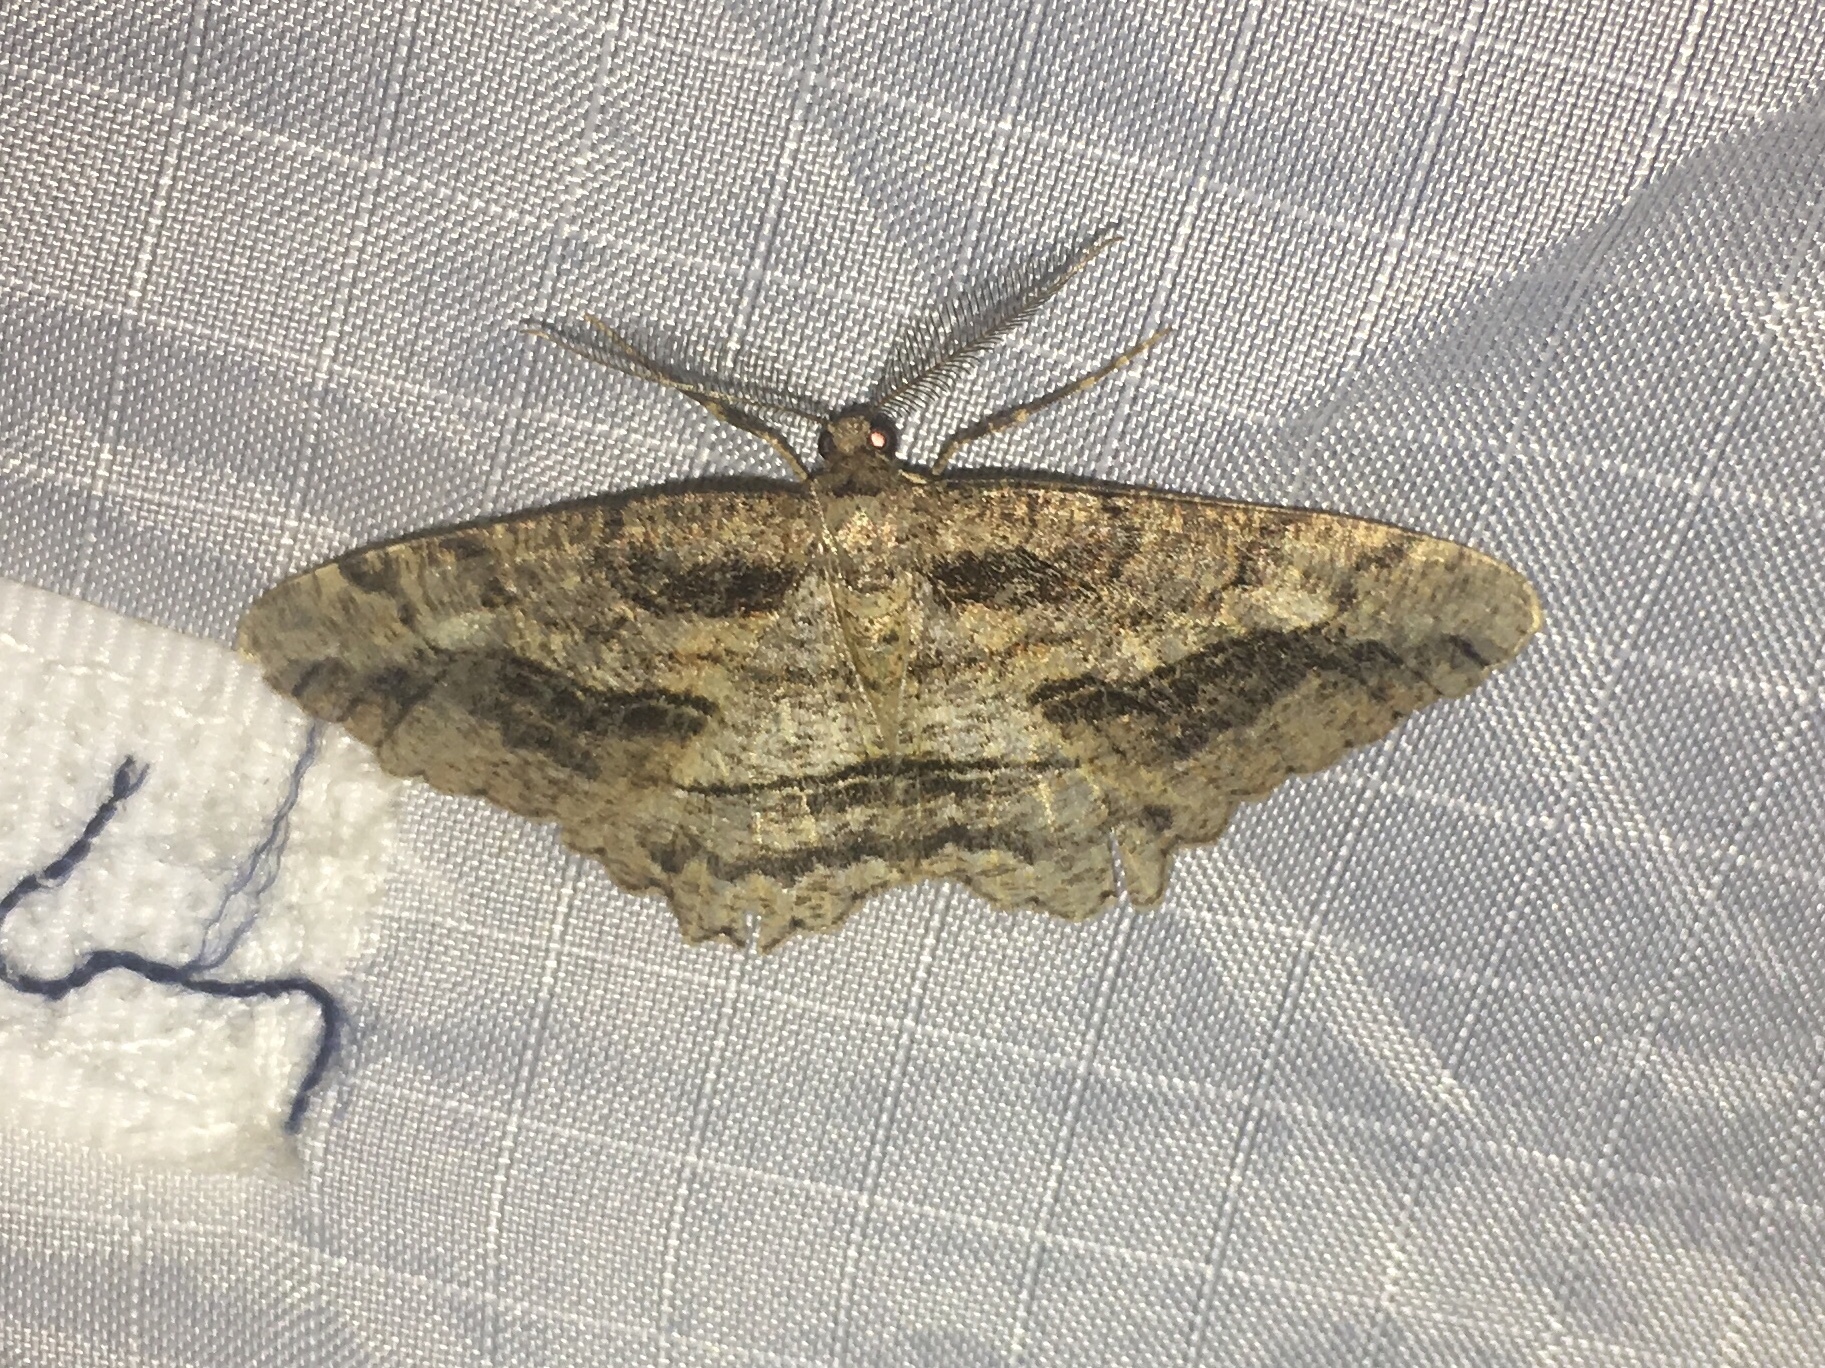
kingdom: Animalia
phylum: Arthropoda
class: Insecta
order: Lepidoptera
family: Geometridae
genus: Neoalcis
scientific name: Neoalcis californiaria
